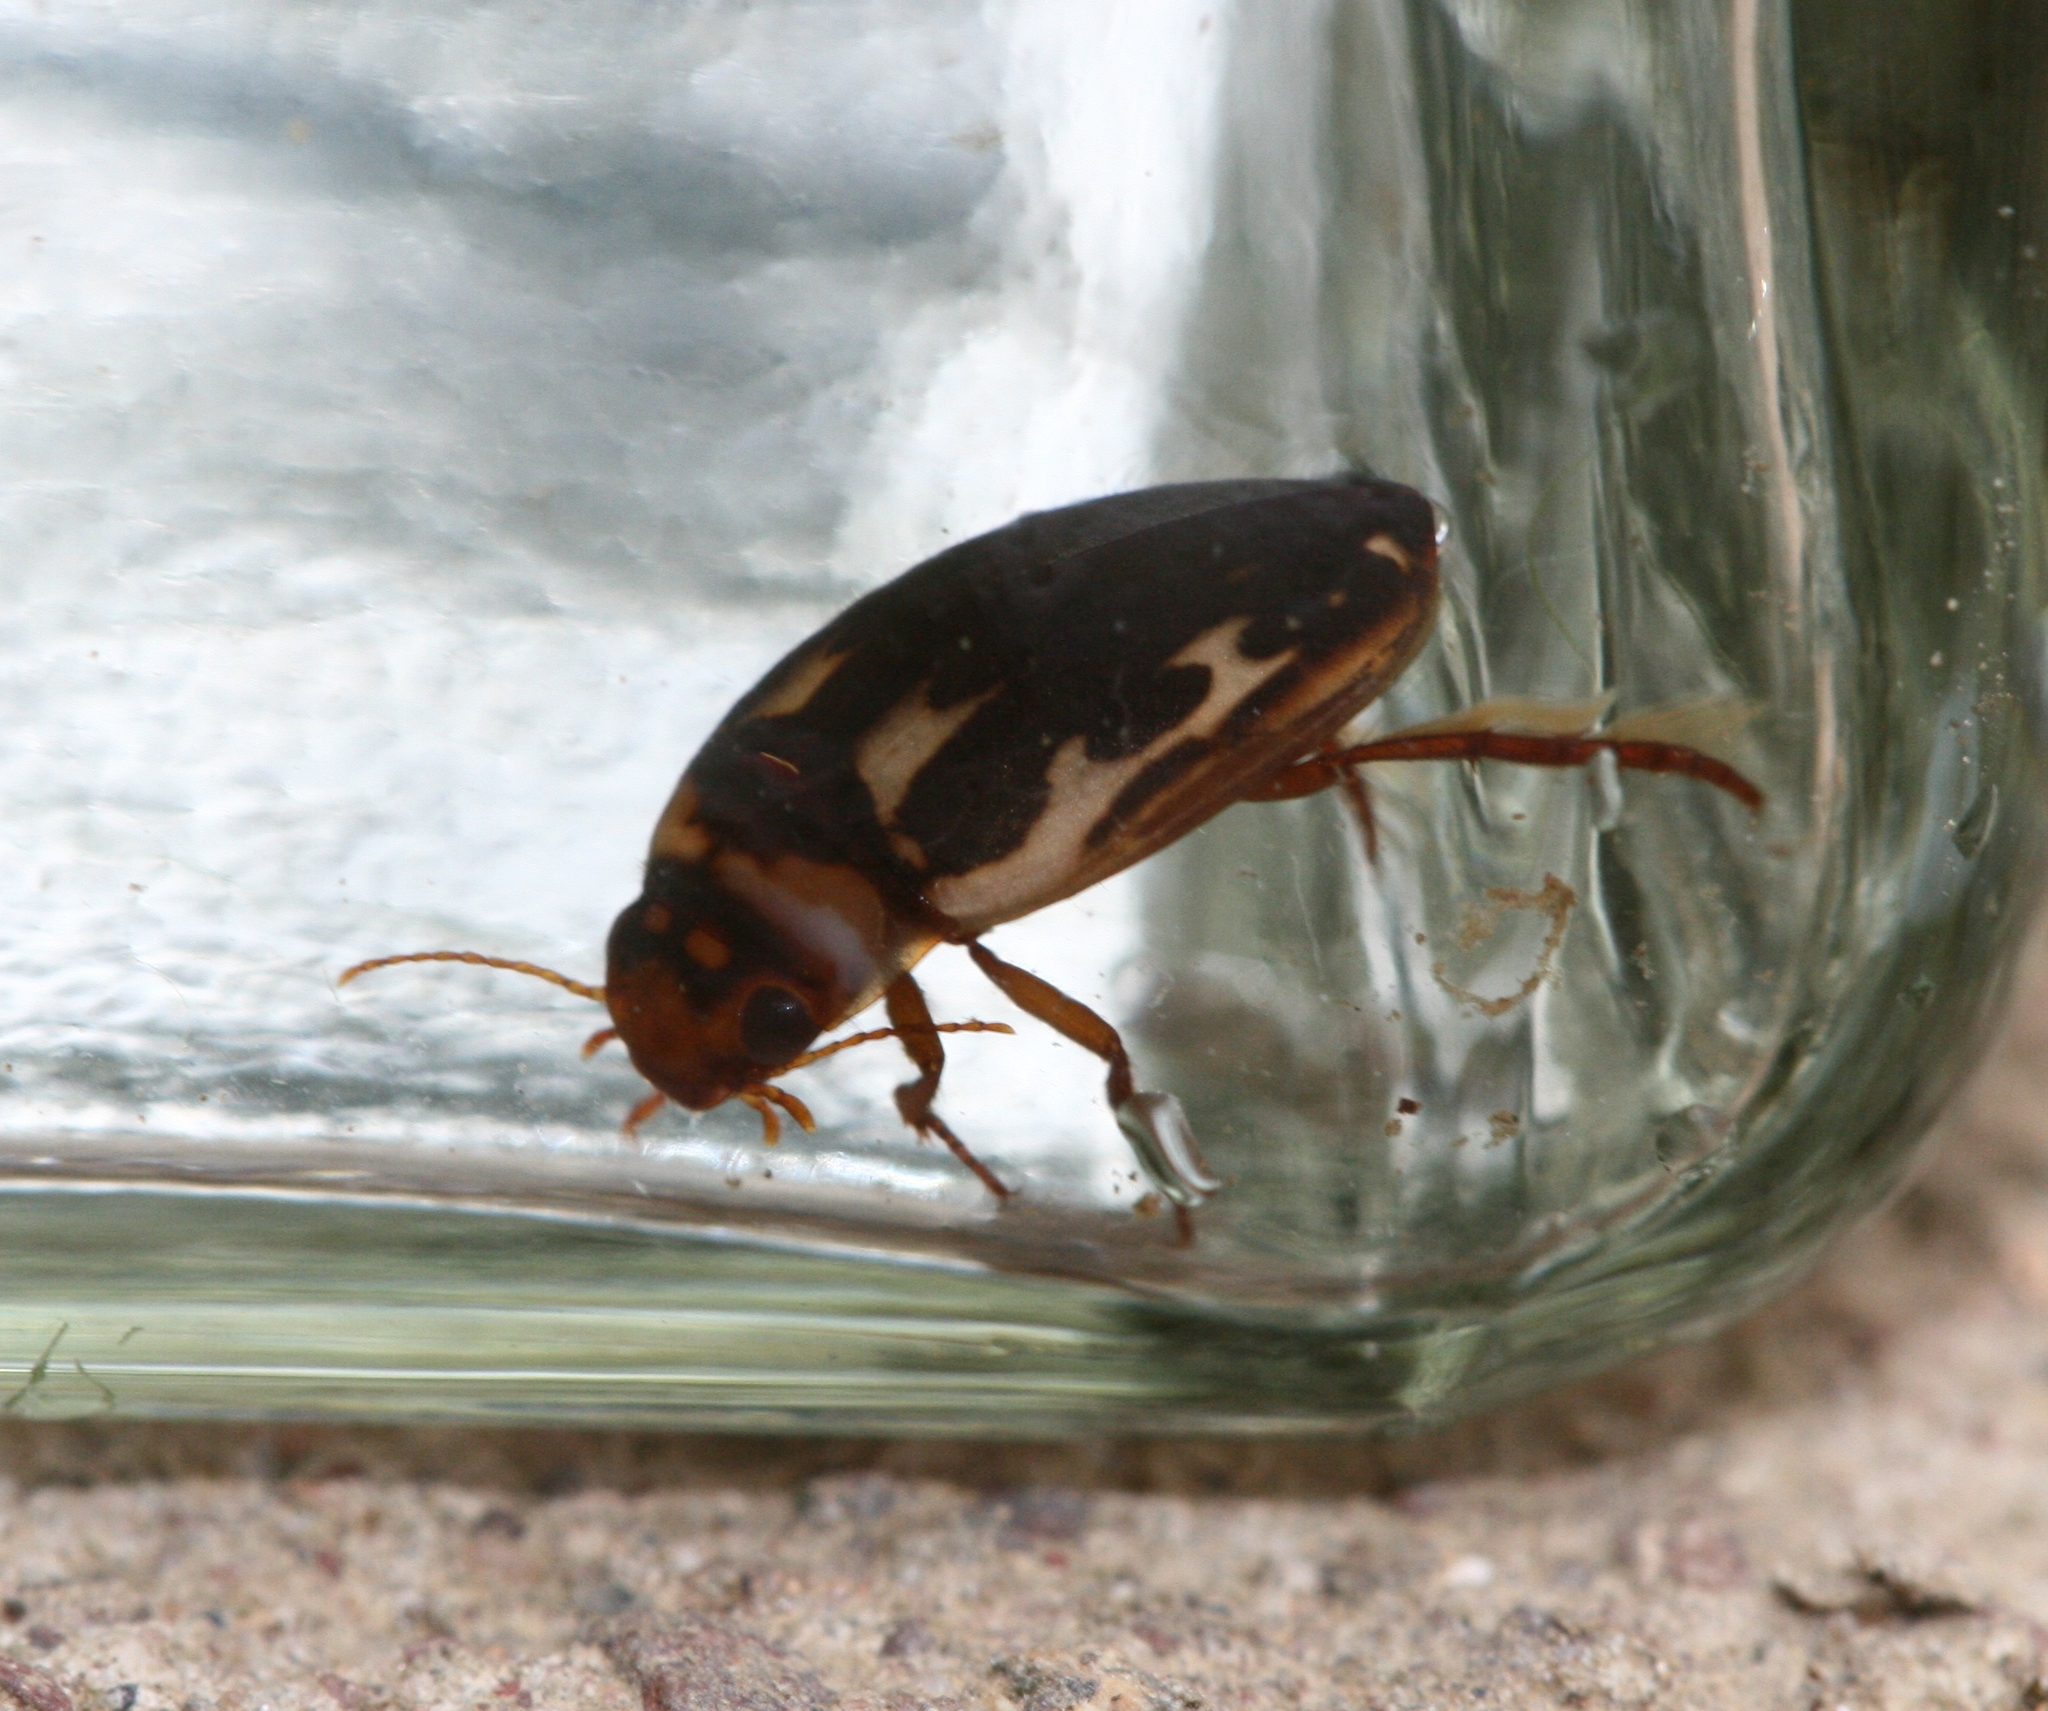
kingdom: Animalia
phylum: Arthropoda
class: Insecta
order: Coleoptera
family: Dytiscidae
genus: Platambus
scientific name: Platambus maculatus
